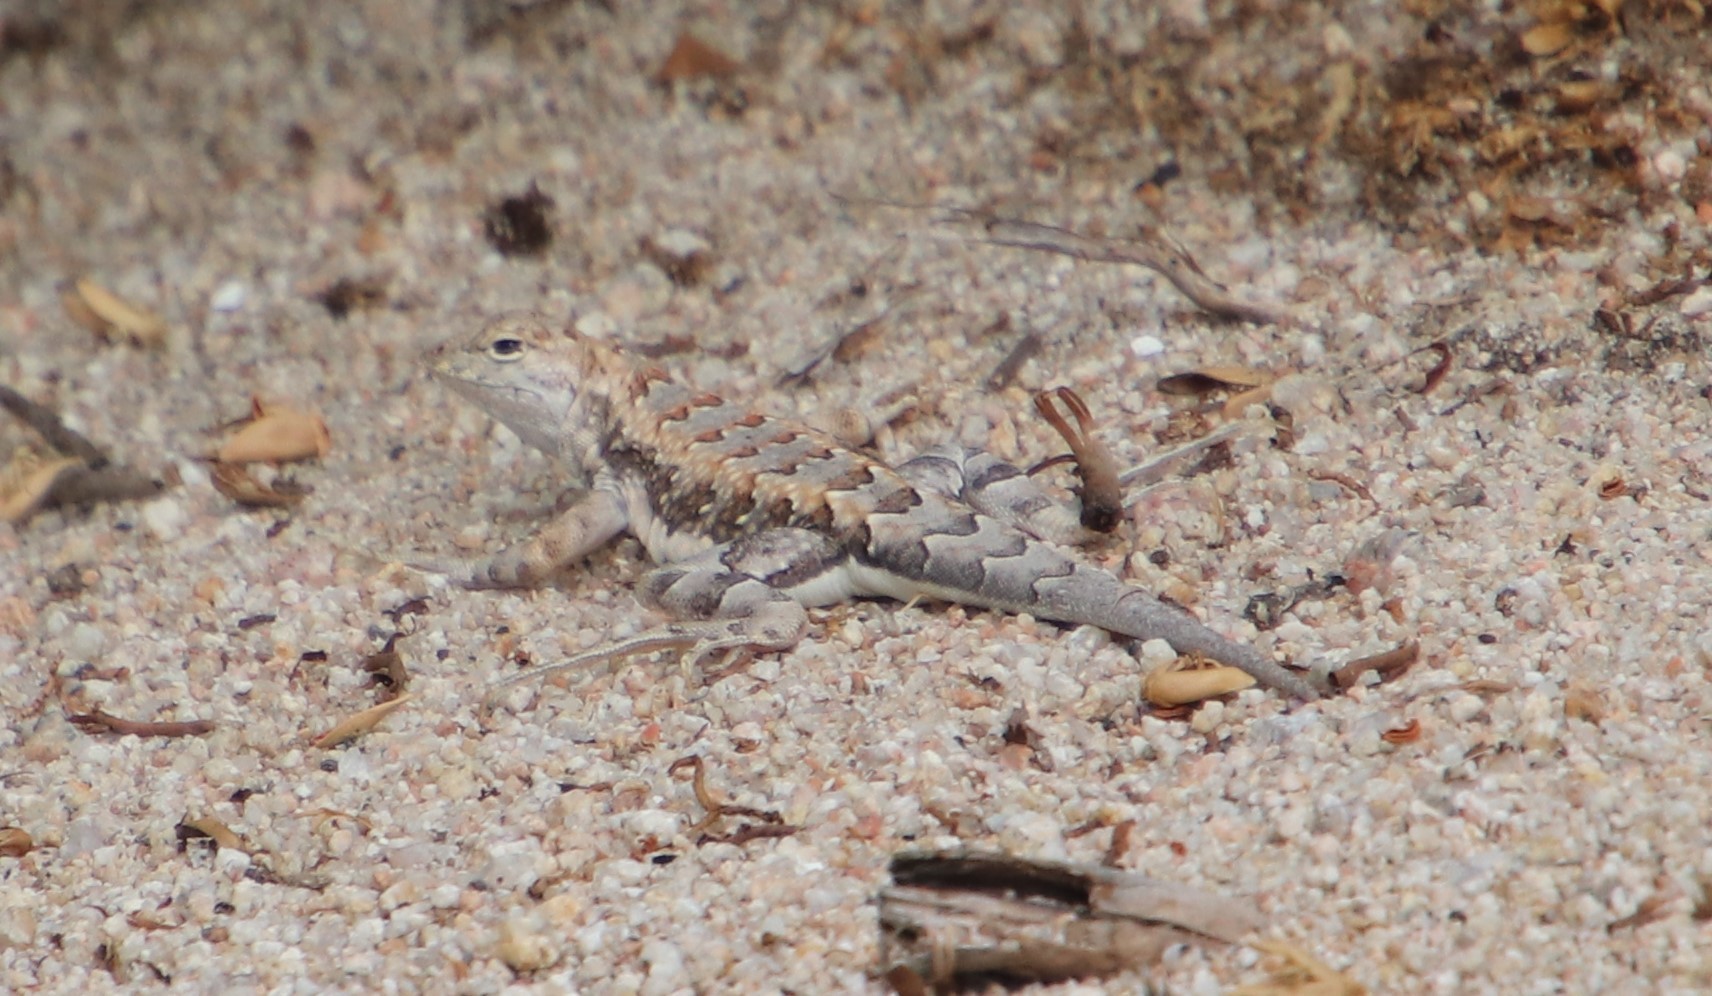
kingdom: Animalia
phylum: Chordata
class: Squamata
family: Phrynosomatidae
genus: Callisaurus
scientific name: Callisaurus draconoides
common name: Zebra-tailed lizard
